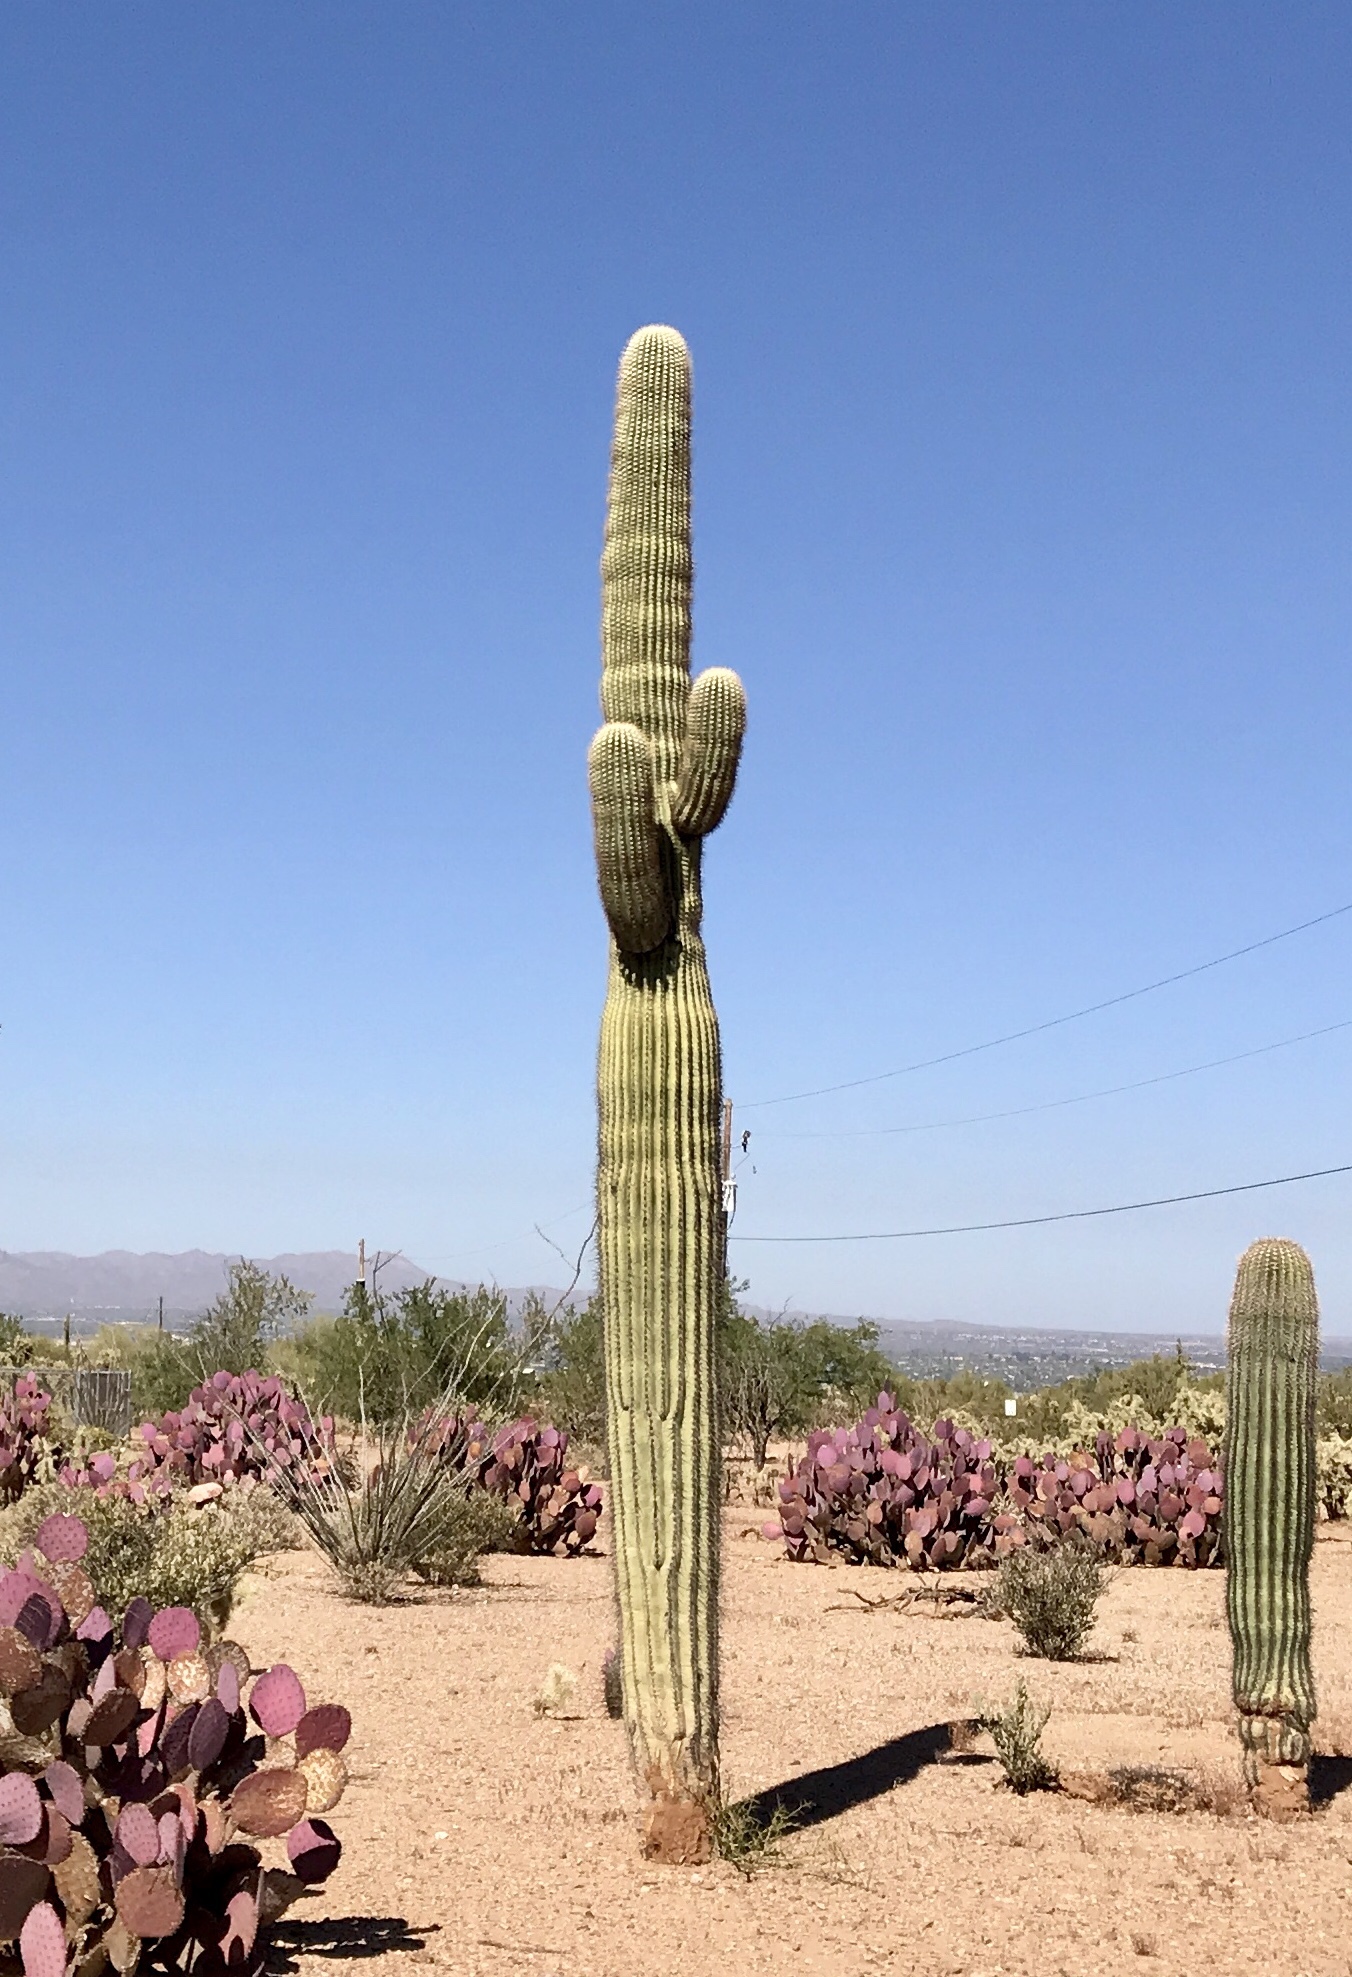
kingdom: Plantae
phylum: Tracheophyta
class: Magnoliopsida
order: Caryophyllales
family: Cactaceae
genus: Carnegiea
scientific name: Carnegiea gigantea
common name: Saguaro
